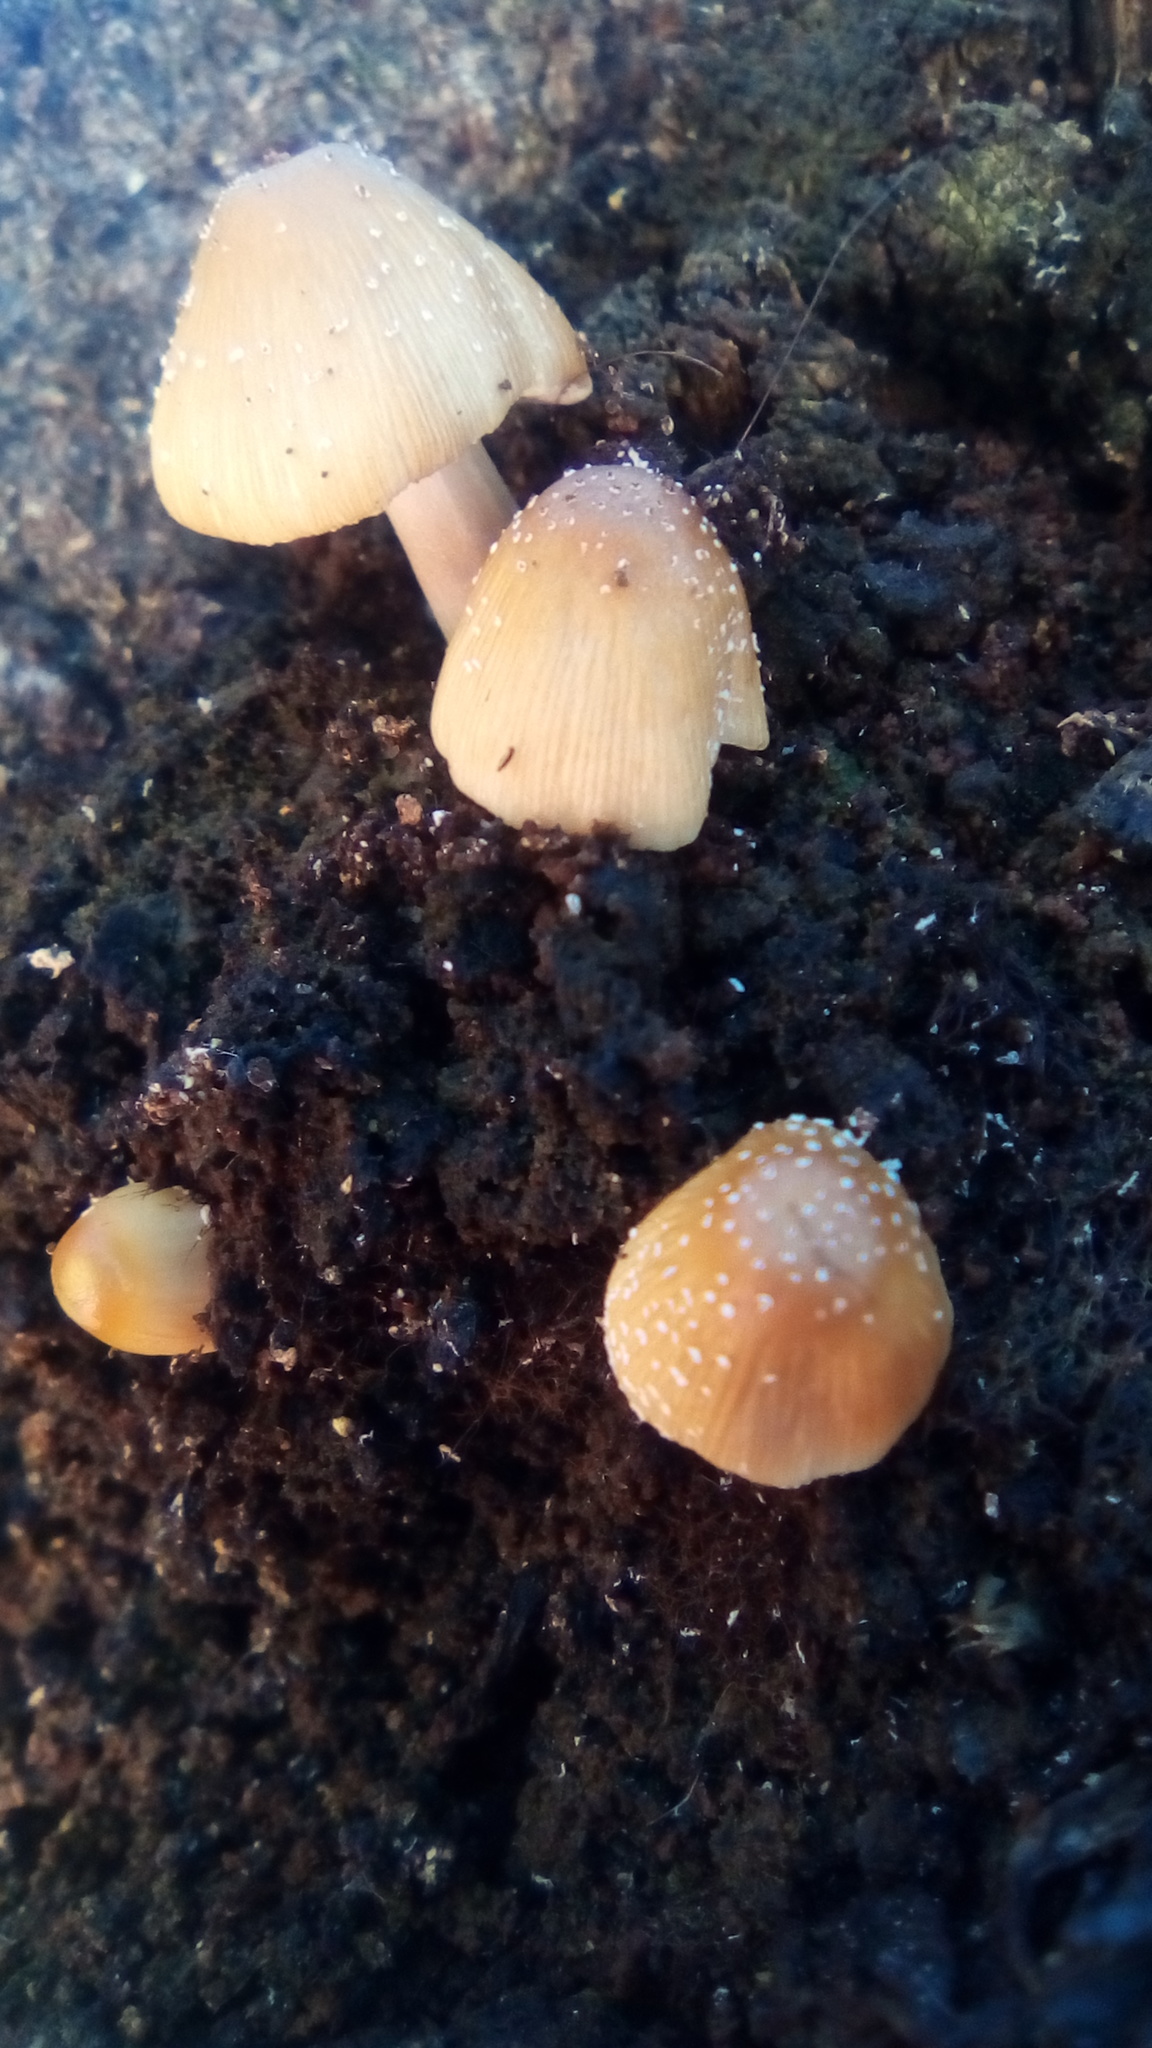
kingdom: Fungi
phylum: Basidiomycota
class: Agaricomycetes
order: Agaricales
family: Psathyrellaceae
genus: Coprinellus
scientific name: Coprinellus micaceus
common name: Glistening ink-cap
